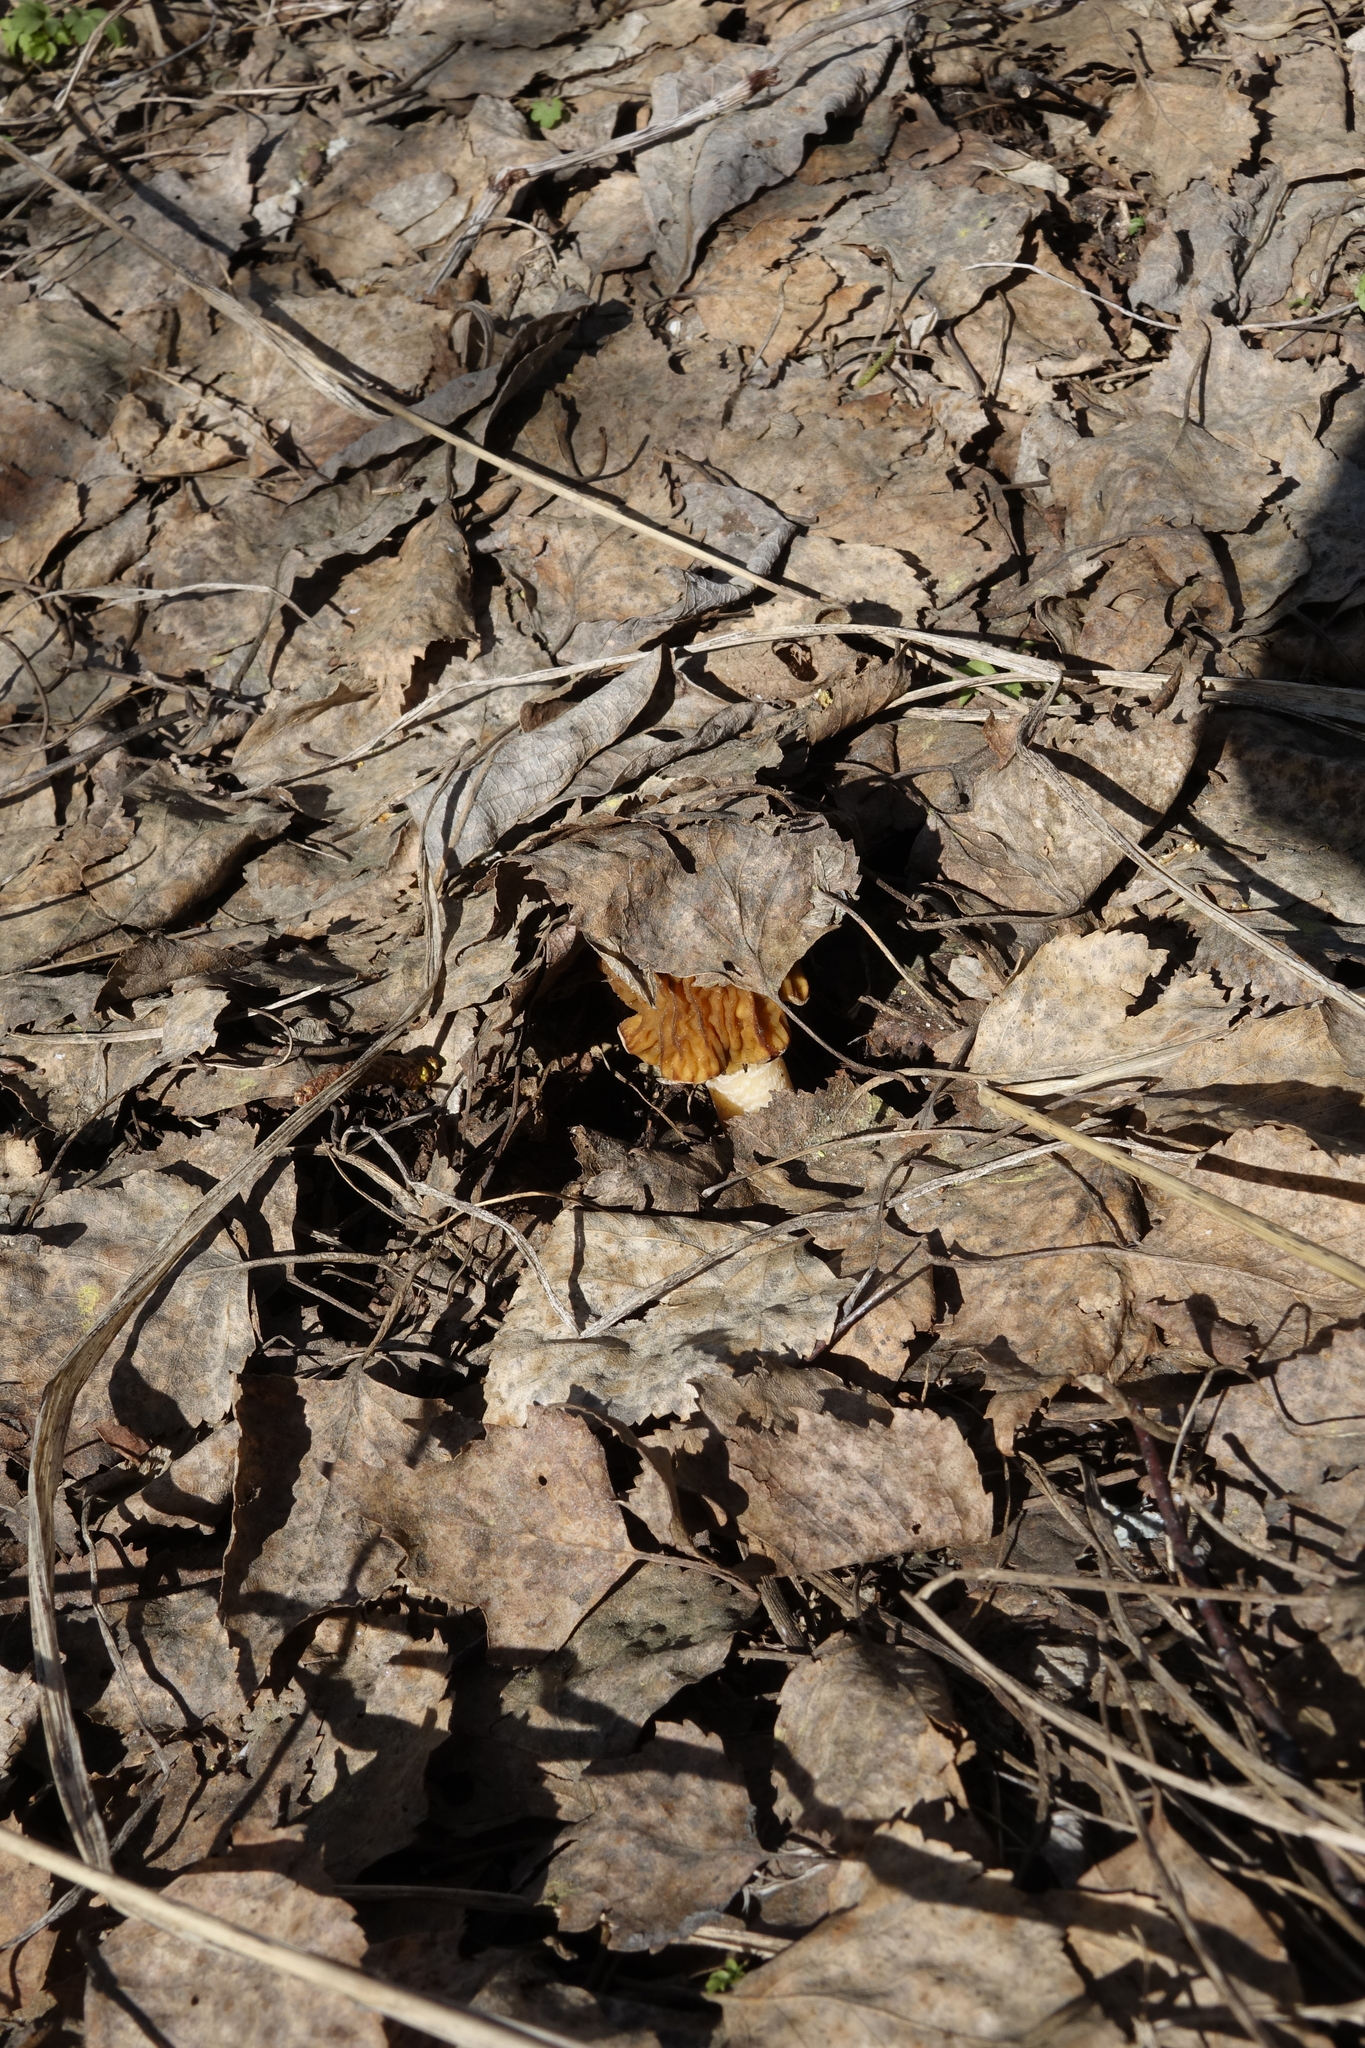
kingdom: Fungi
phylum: Ascomycota
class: Pezizomycetes
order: Pezizales
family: Morchellaceae
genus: Verpa
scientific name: Verpa bohemica
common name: Wrinkled thimble morel
